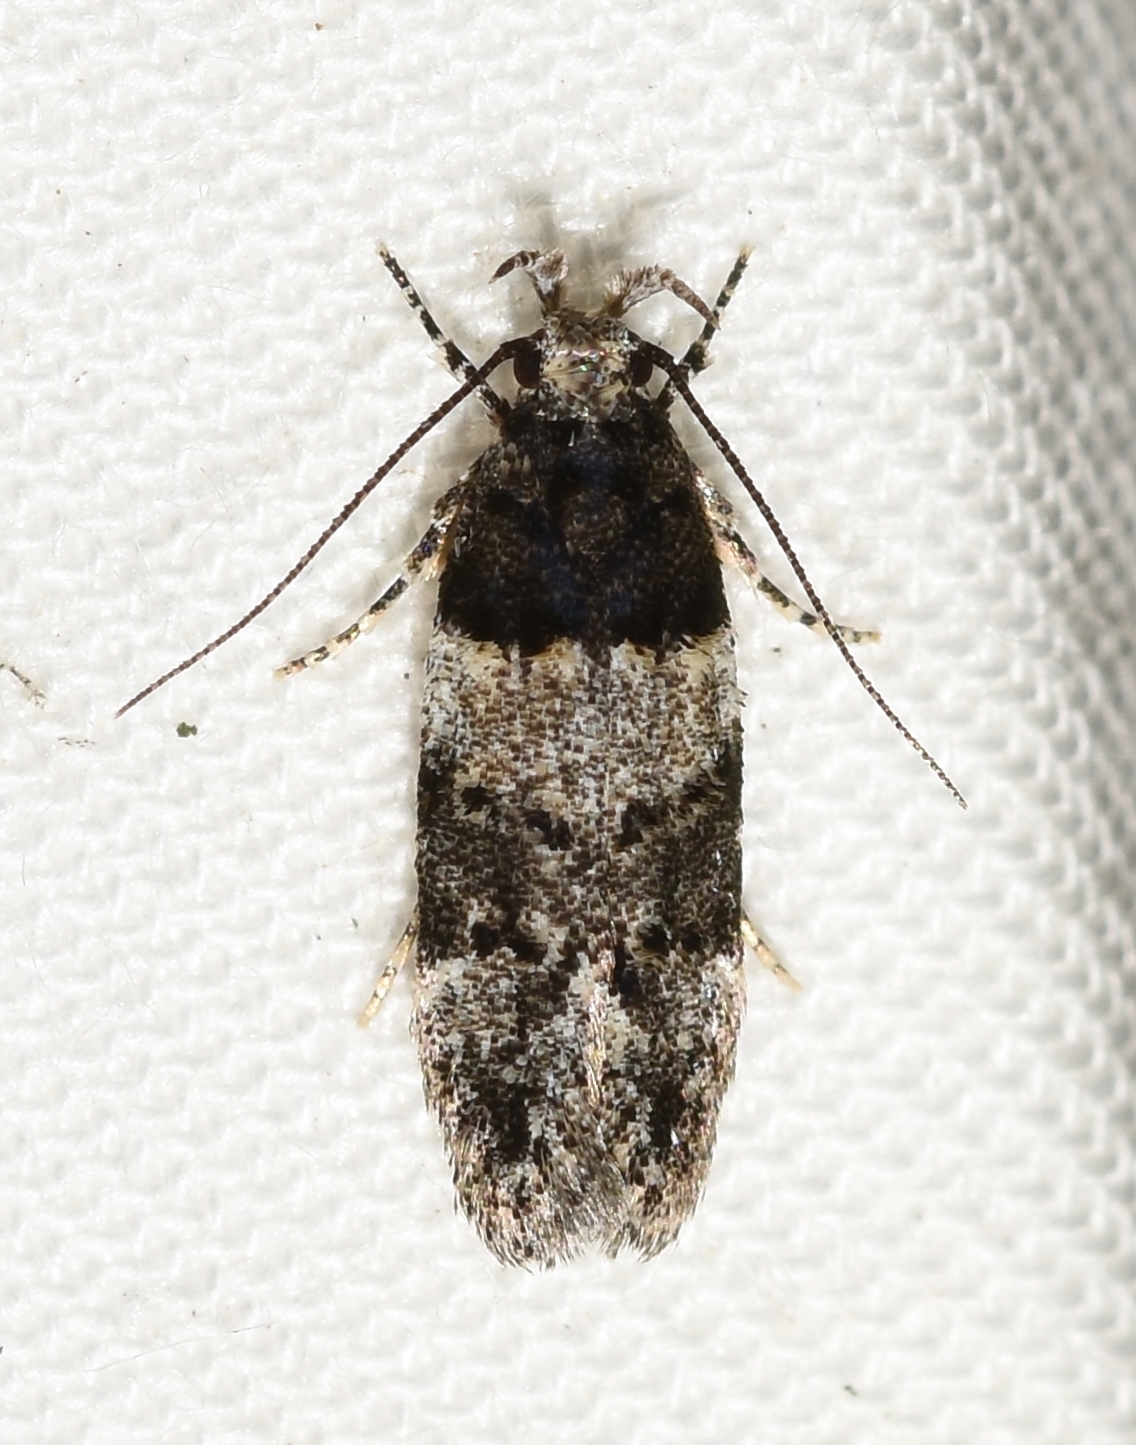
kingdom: Animalia
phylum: Arthropoda
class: Insecta
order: Lepidoptera
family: Gelechiidae
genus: Pubitelphusa
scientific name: Pubitelphusa latifasciella
